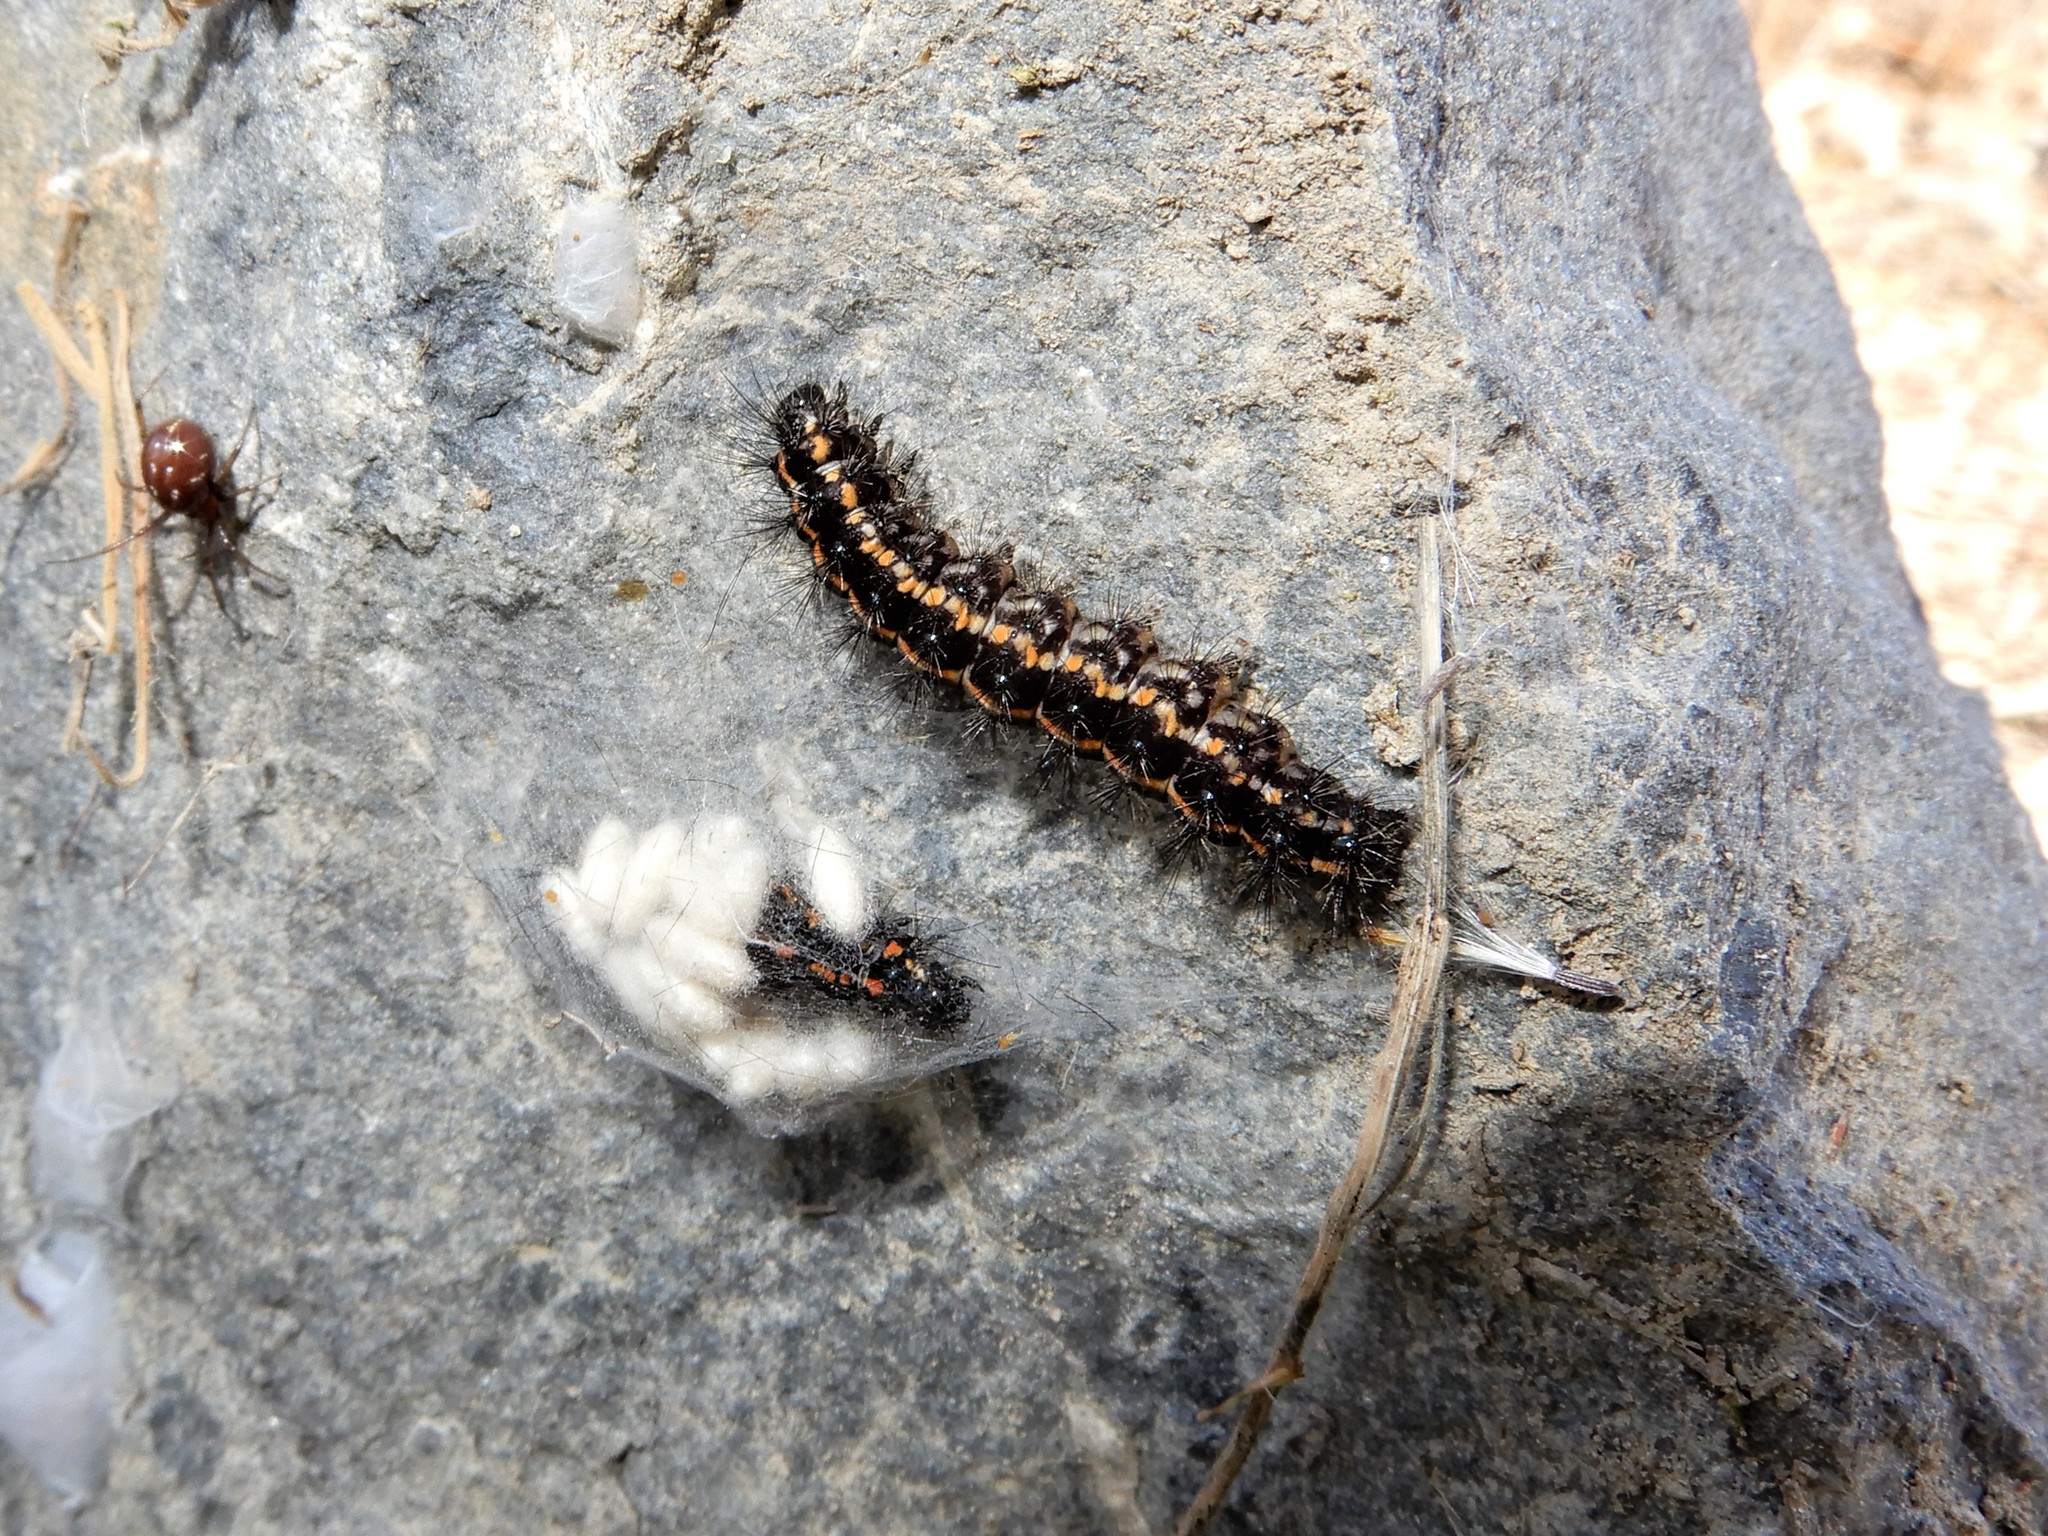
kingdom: Animalia
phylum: Arthropoda
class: Insecta
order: Lepidoptera
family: Erebidae
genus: Nyctemera
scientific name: Nyctemera annulatum
